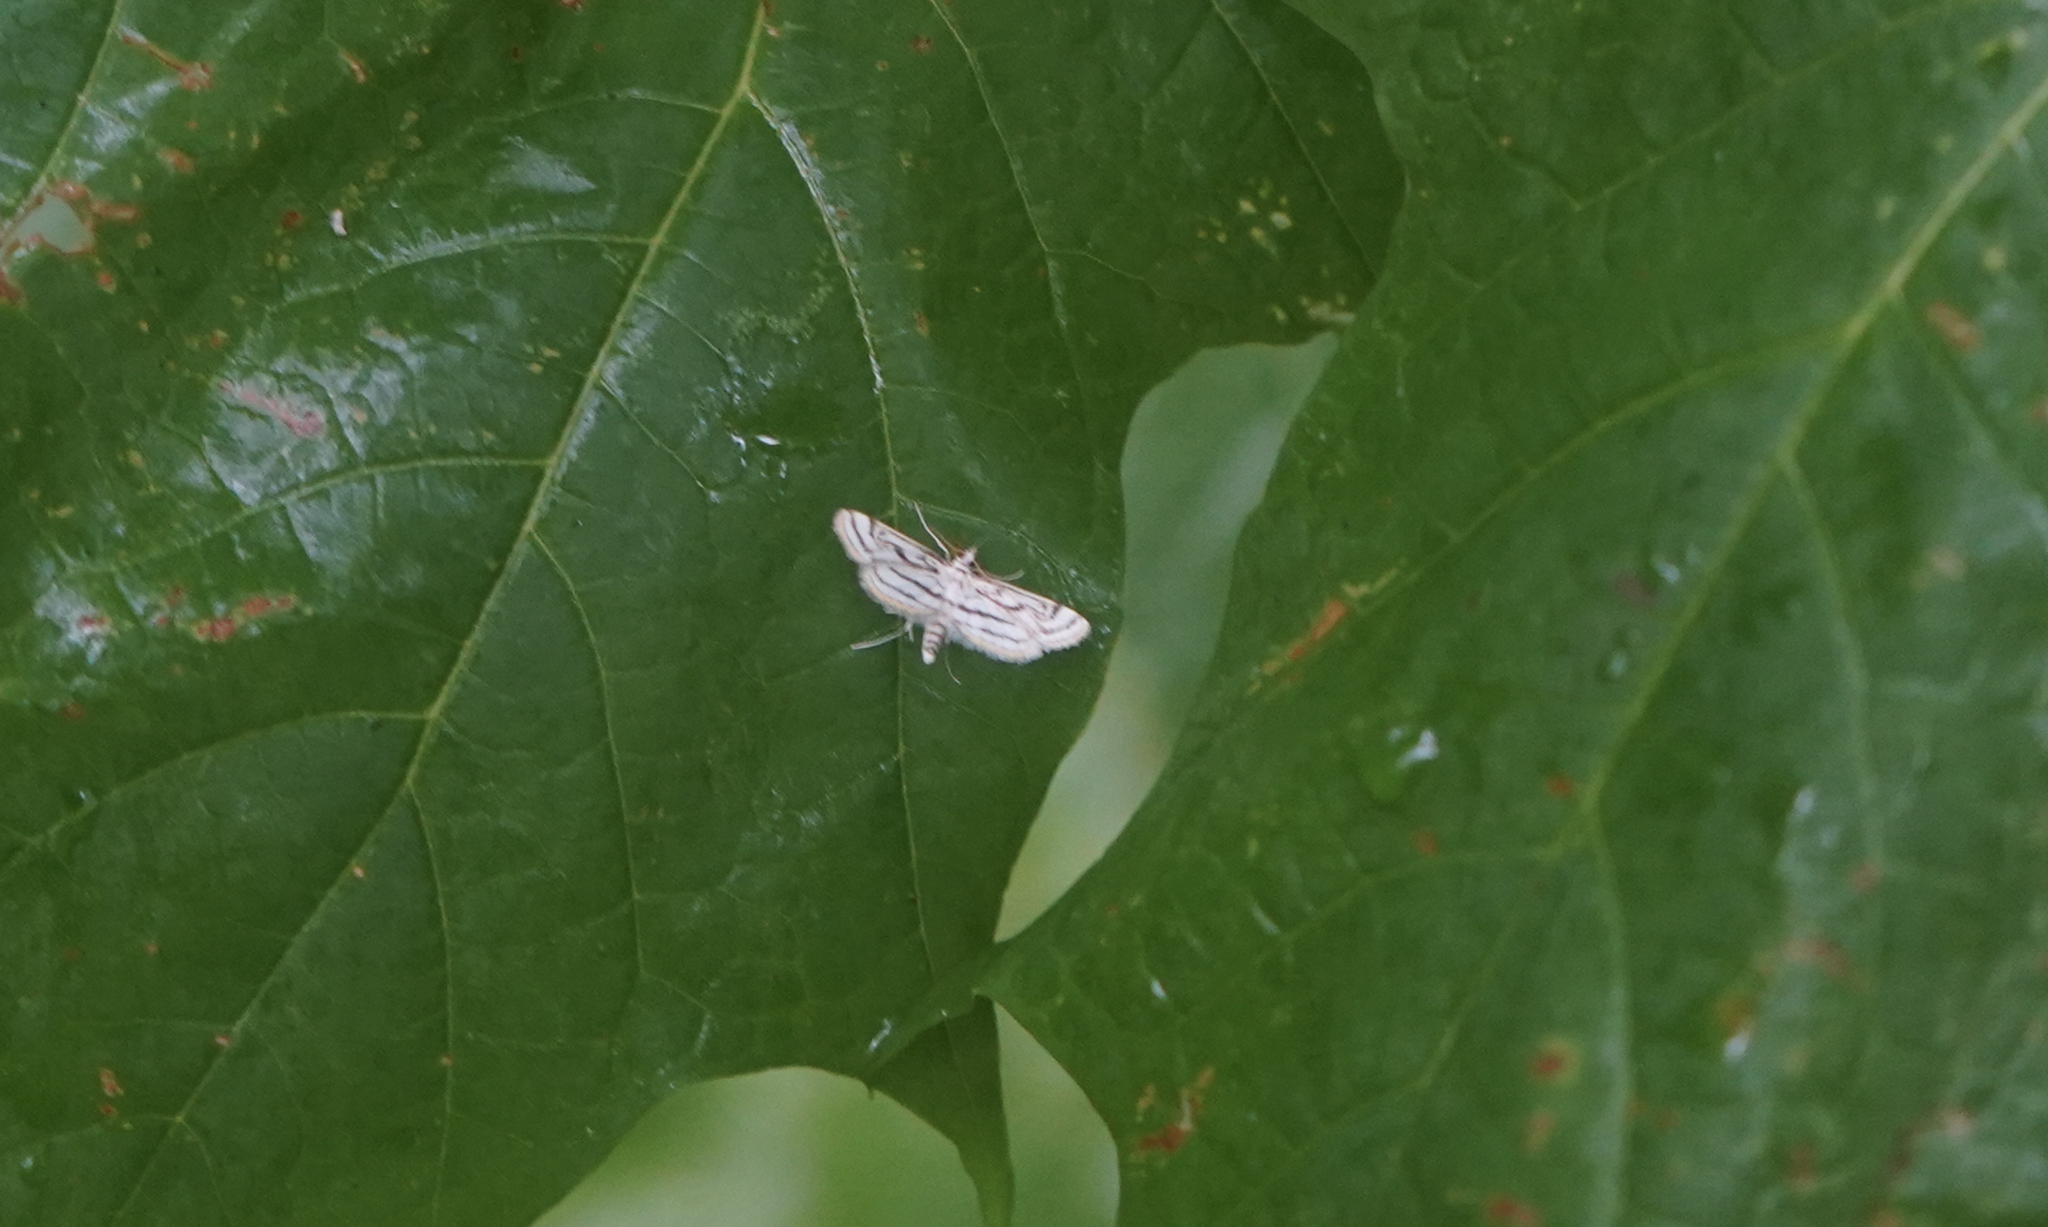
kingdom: Animalia
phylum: Arthropoda
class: Insecta
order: Lepidoptera
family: Crambidae
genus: Parapoynx
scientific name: Parapoynx badiusalis
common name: Chestnut-marked pondweed moth
